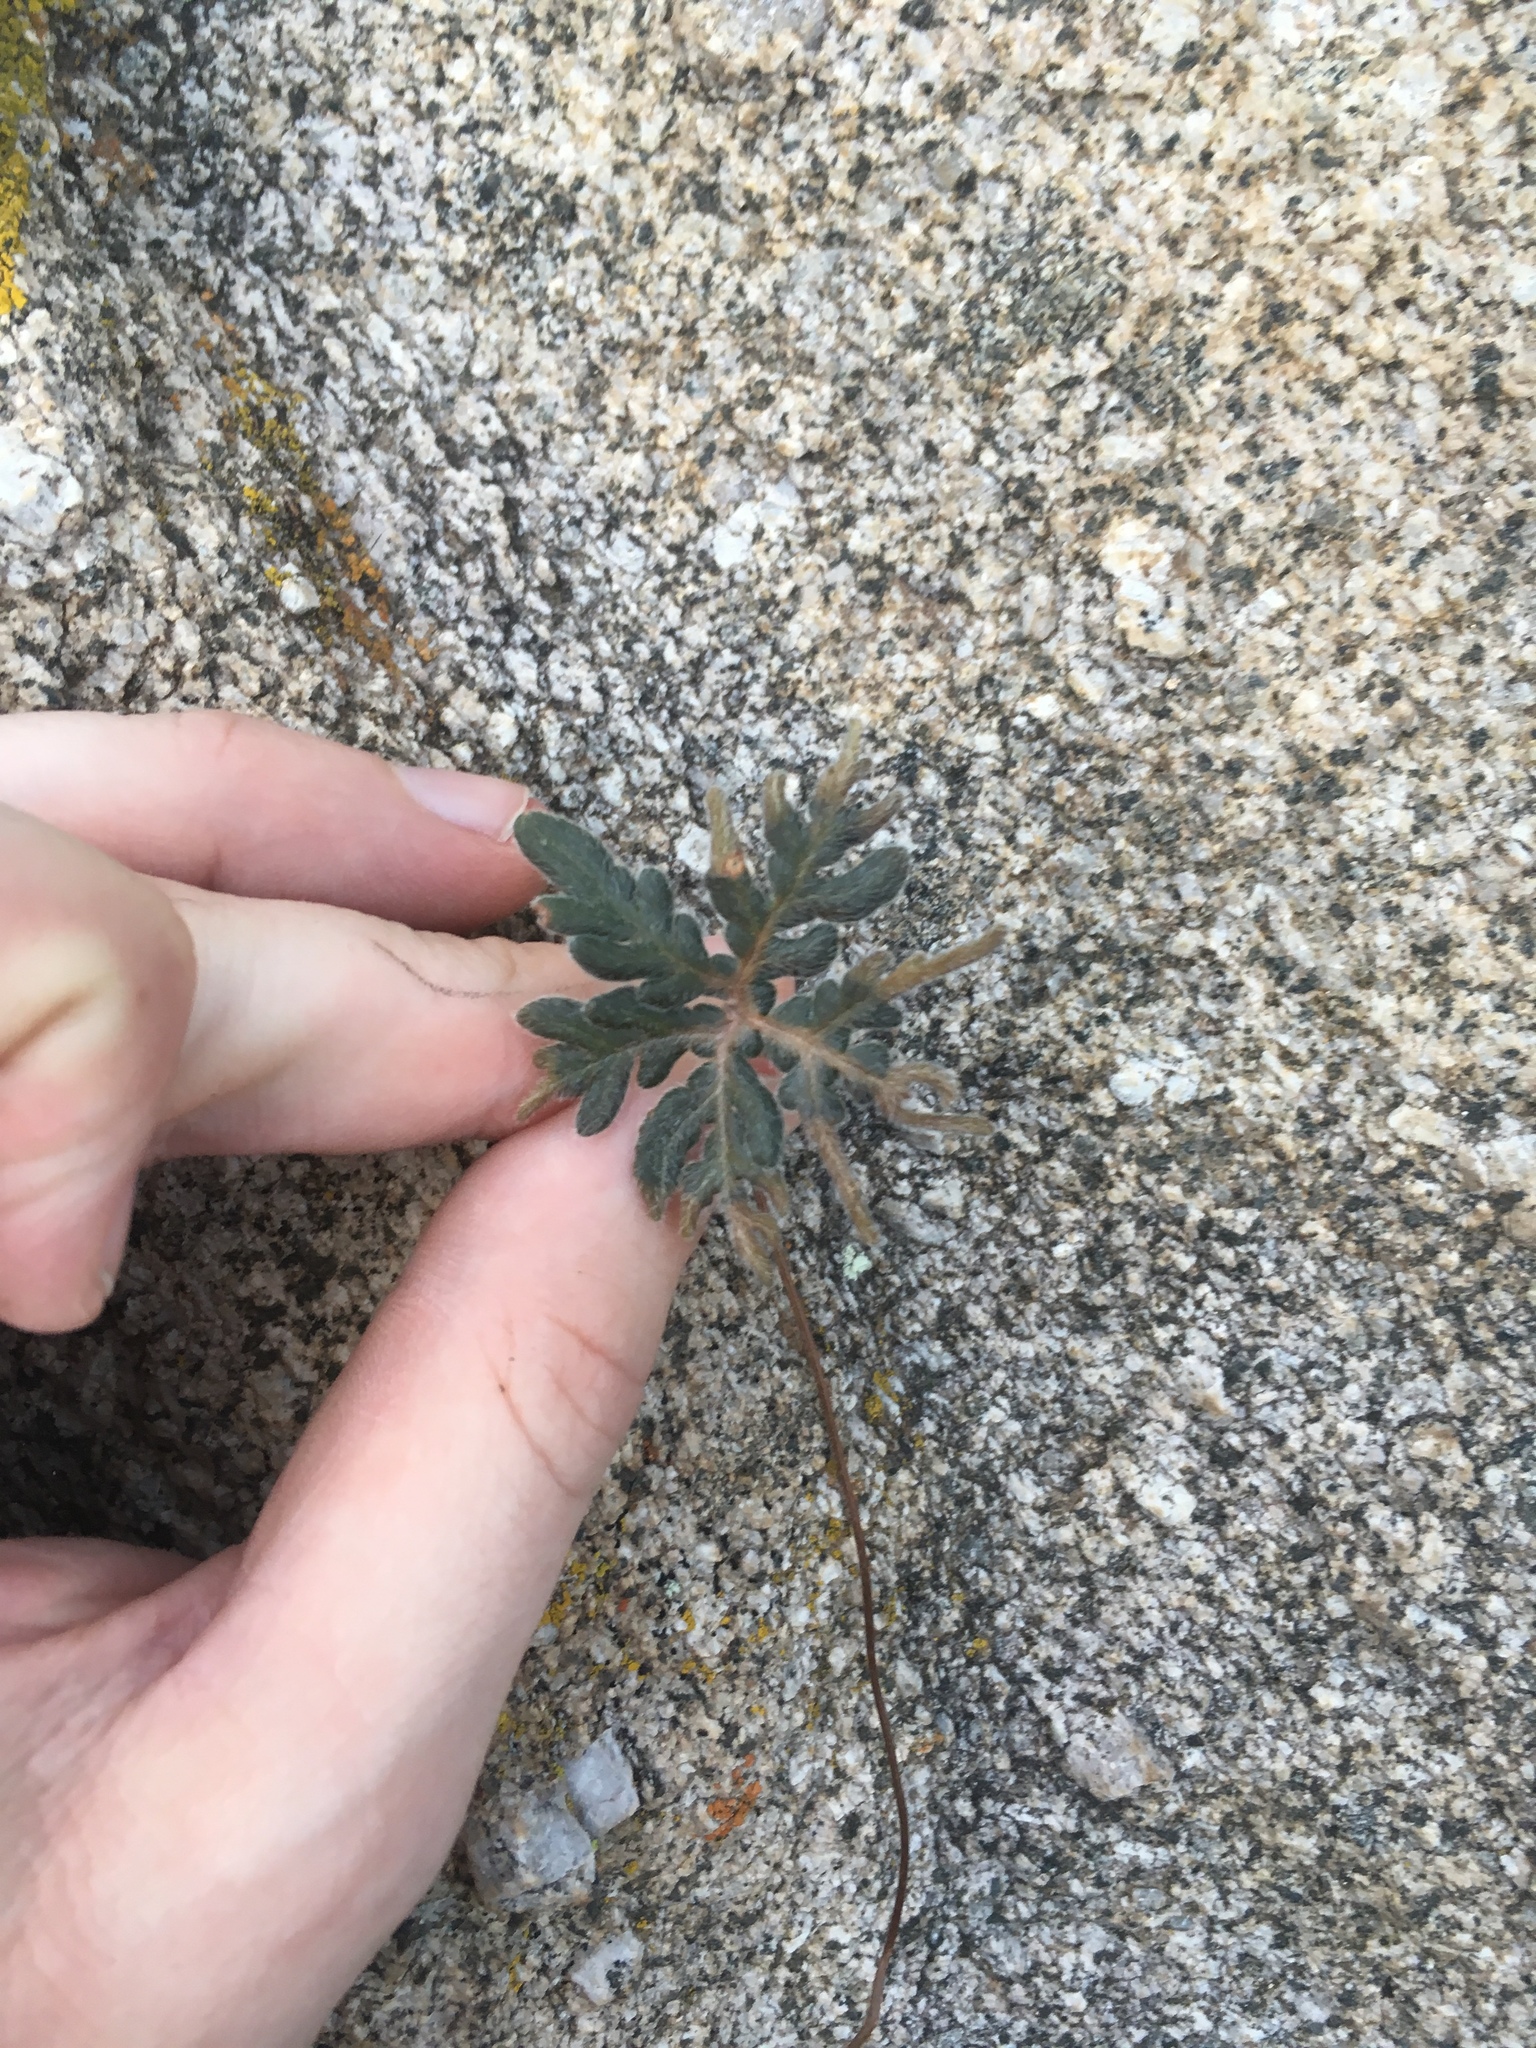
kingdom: Plantae
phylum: Tracheophyta
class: Polypodiopsida
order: Polypodiales
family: Pteridaceae
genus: Bommeria
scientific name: Bommeria hispida
